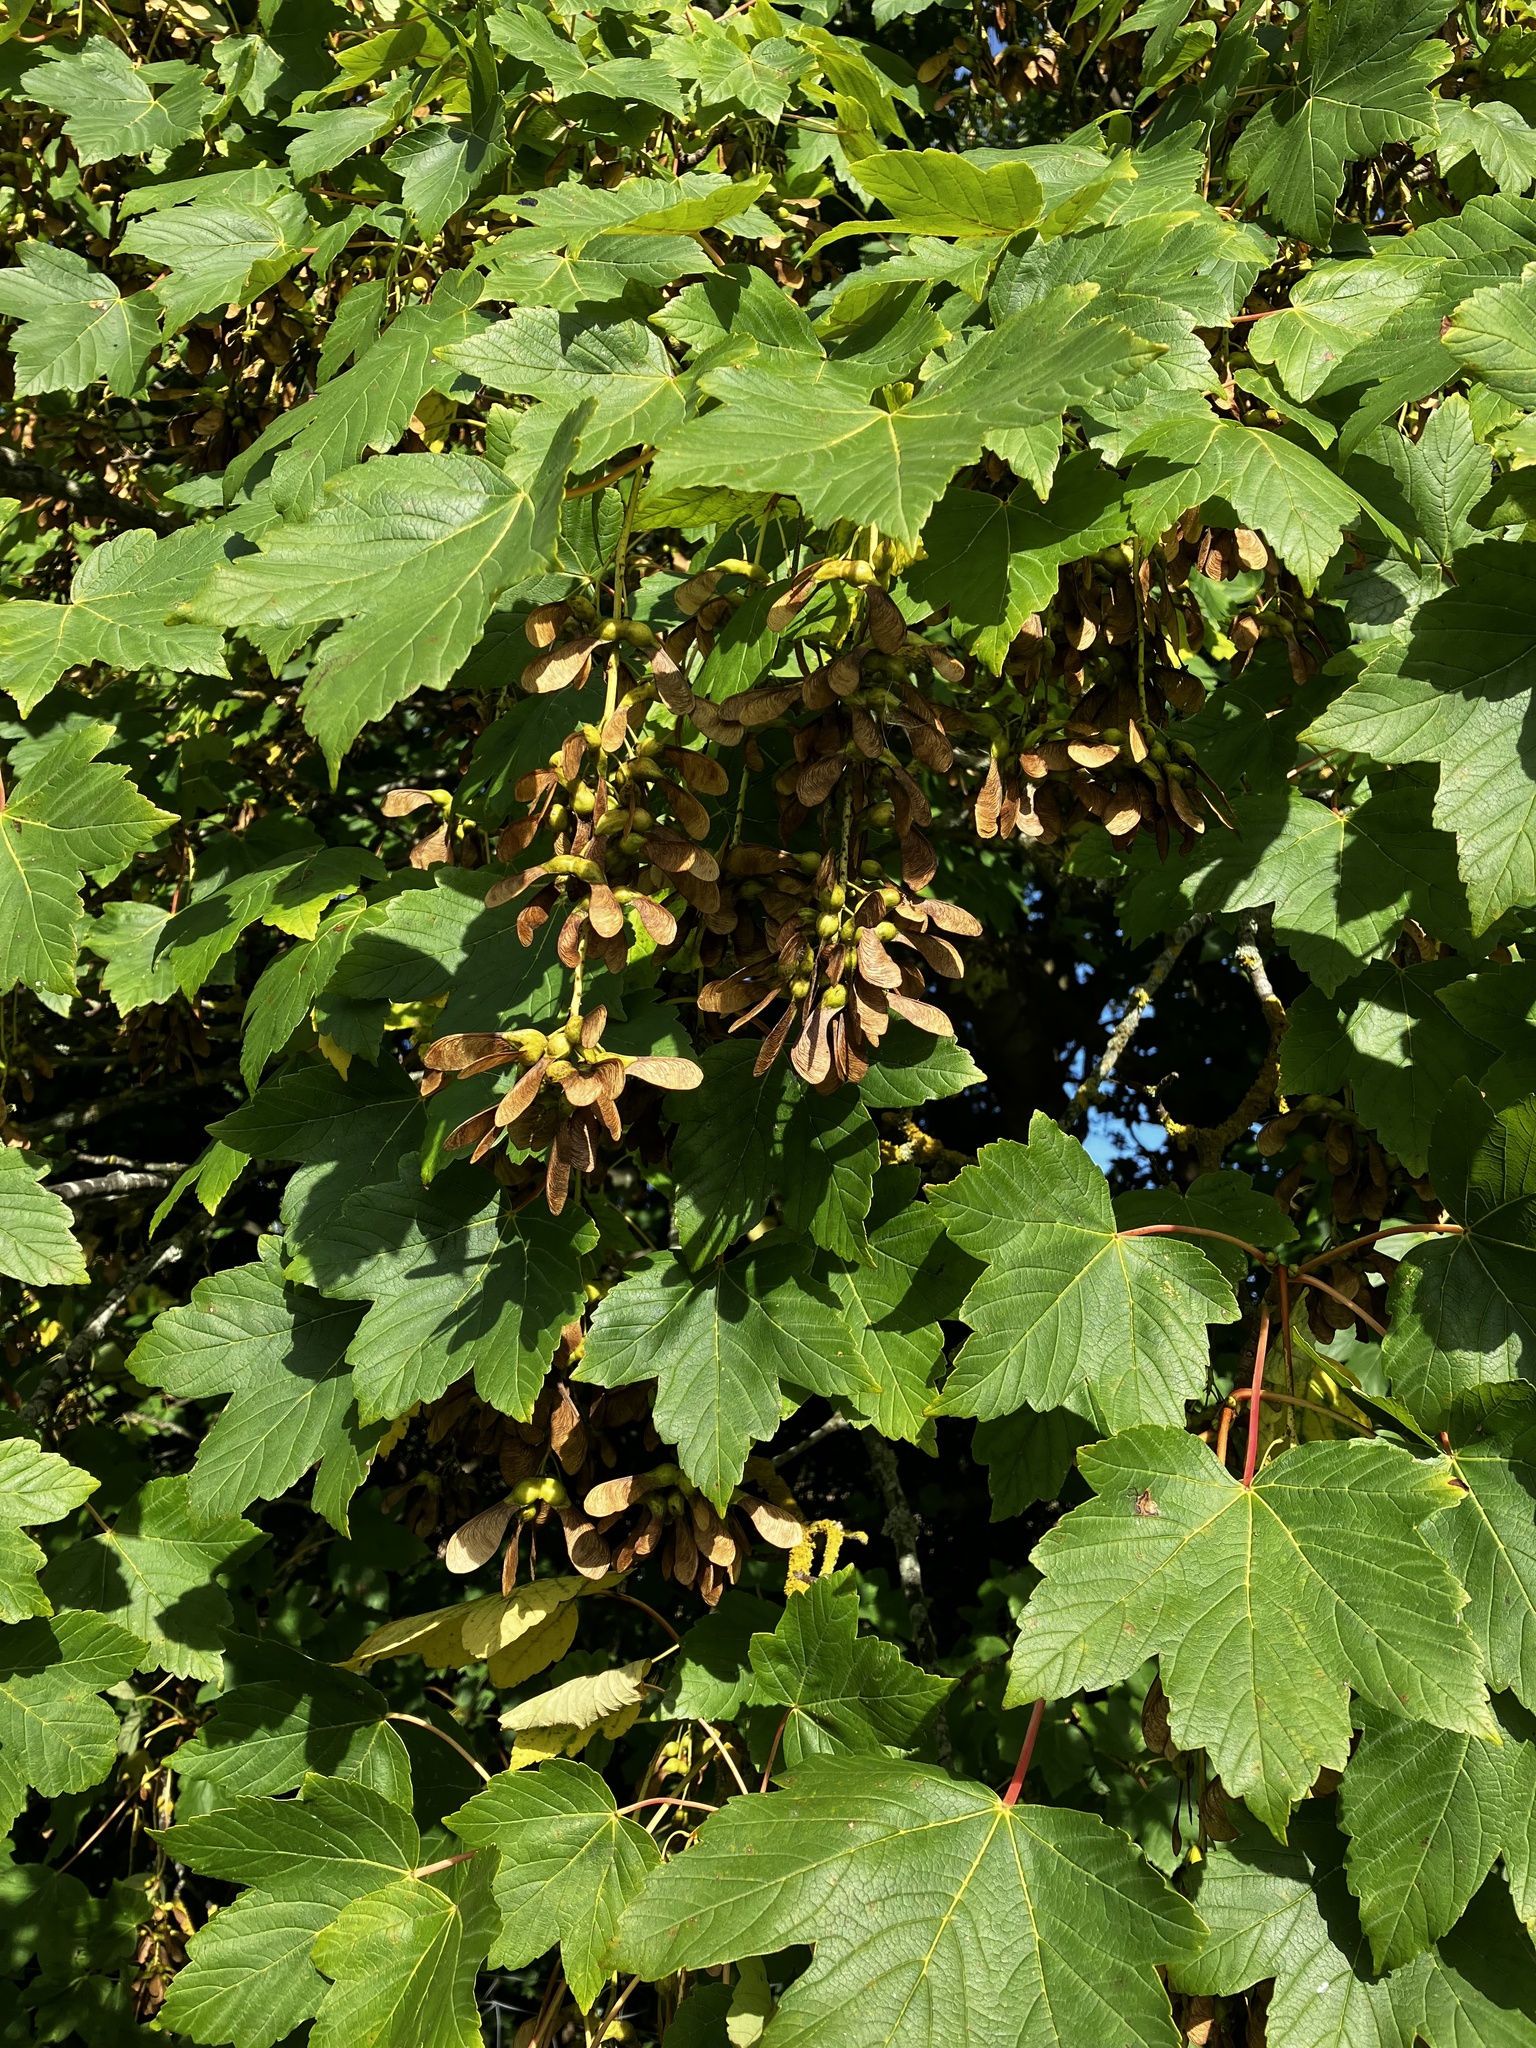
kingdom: Plantae
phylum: Tracheophyta
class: Magnoliopsida
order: Sapindales
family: Sapindaceae
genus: Acer
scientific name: Acer pseudoplatanus
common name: Sycamore
